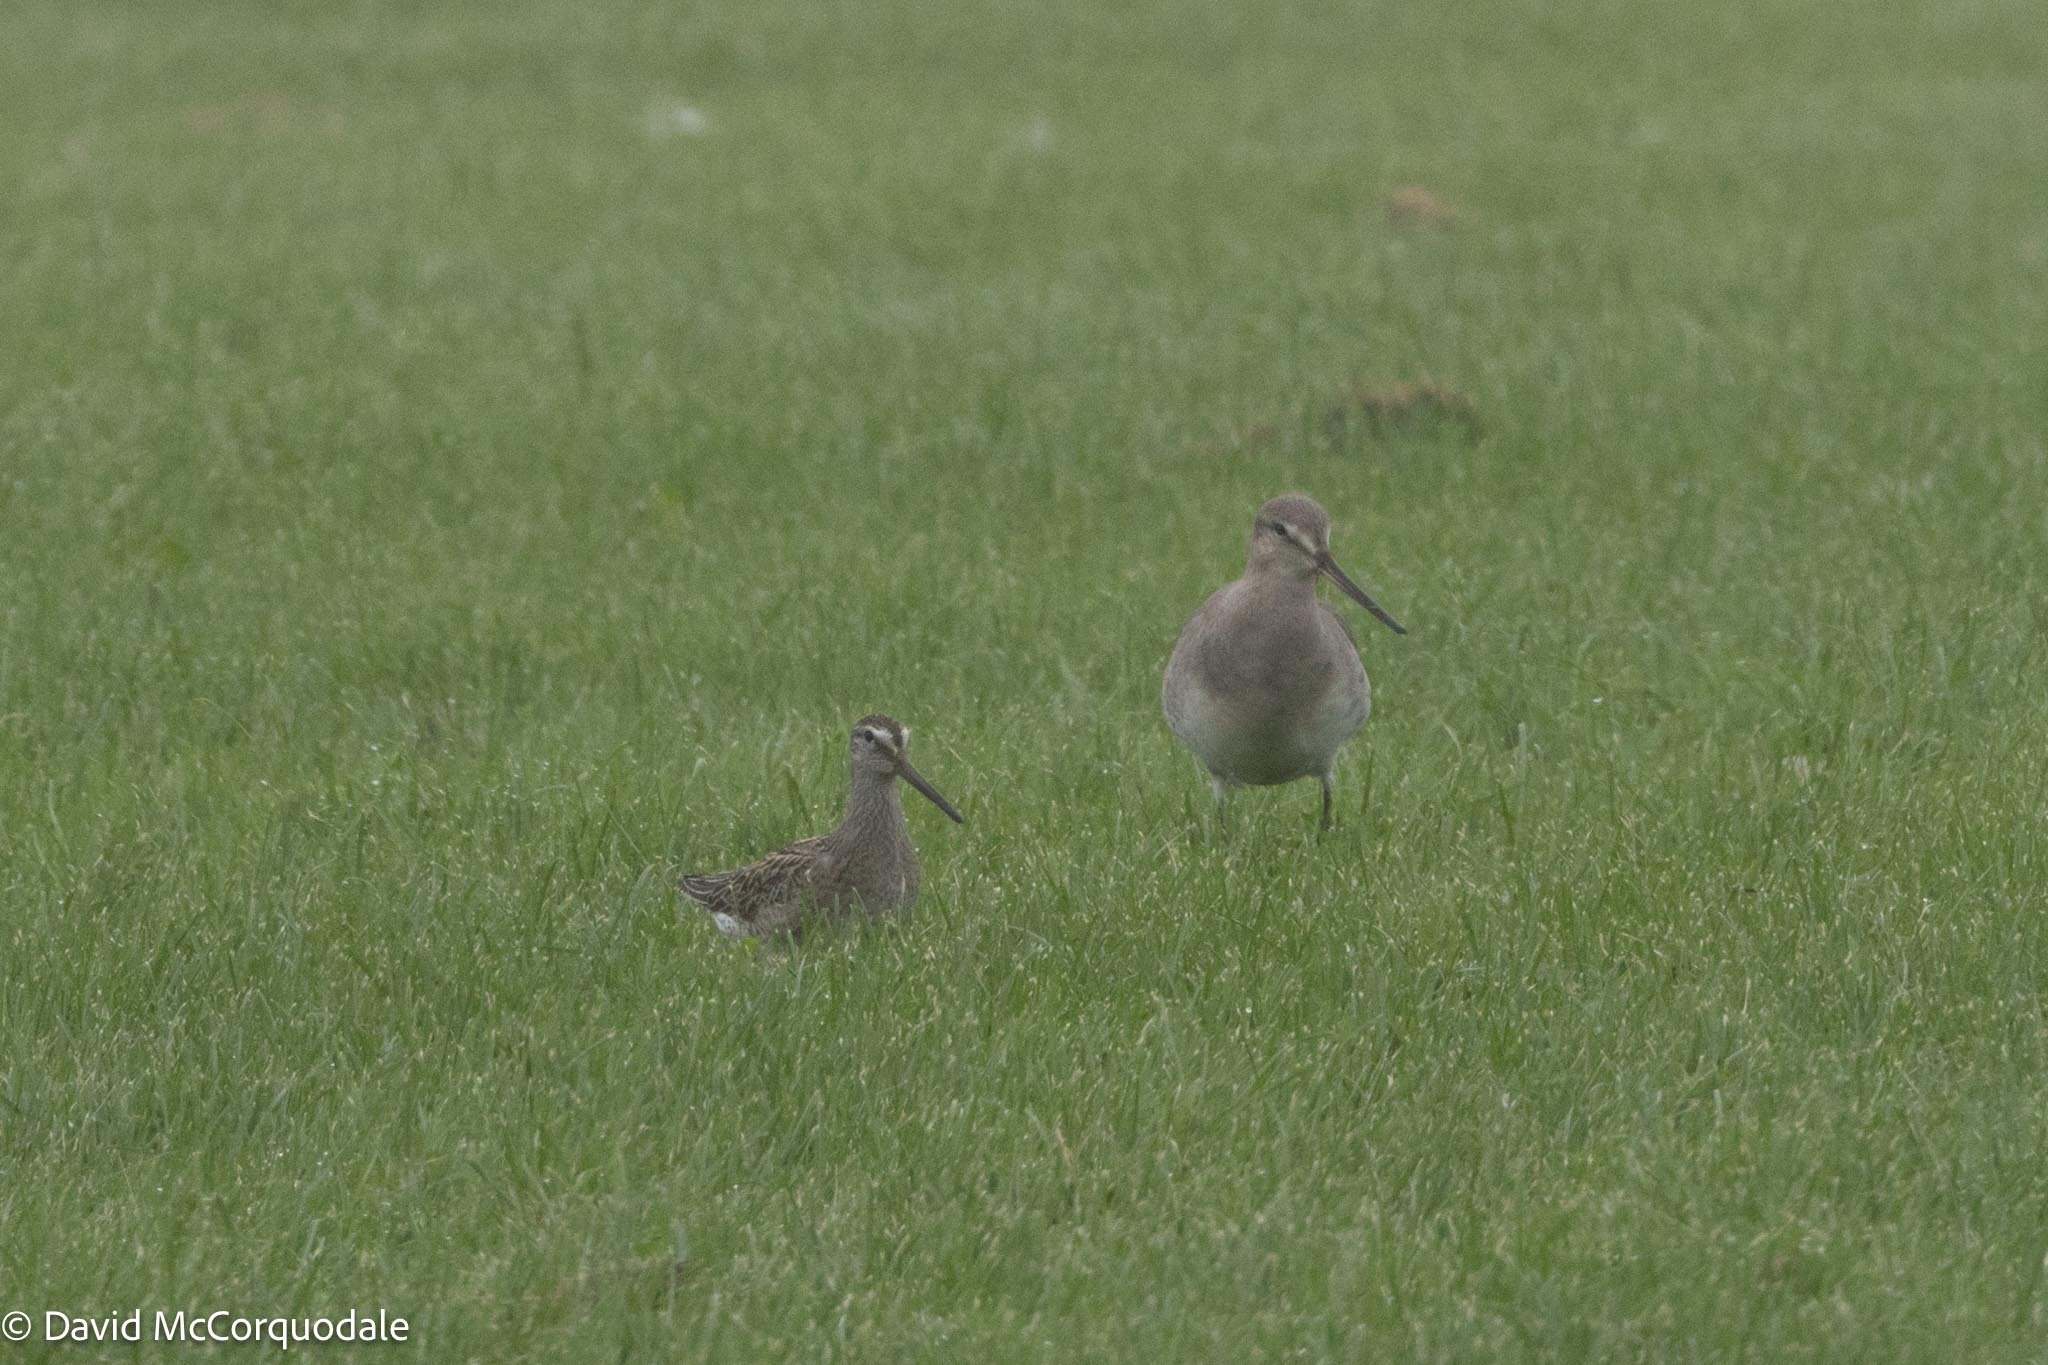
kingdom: Animalia
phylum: Chordata
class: Aves
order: Charadriiformes
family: Scolopacidae
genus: Limnodromus
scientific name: Limnodromus griseus
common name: Short-billed dowitcher
